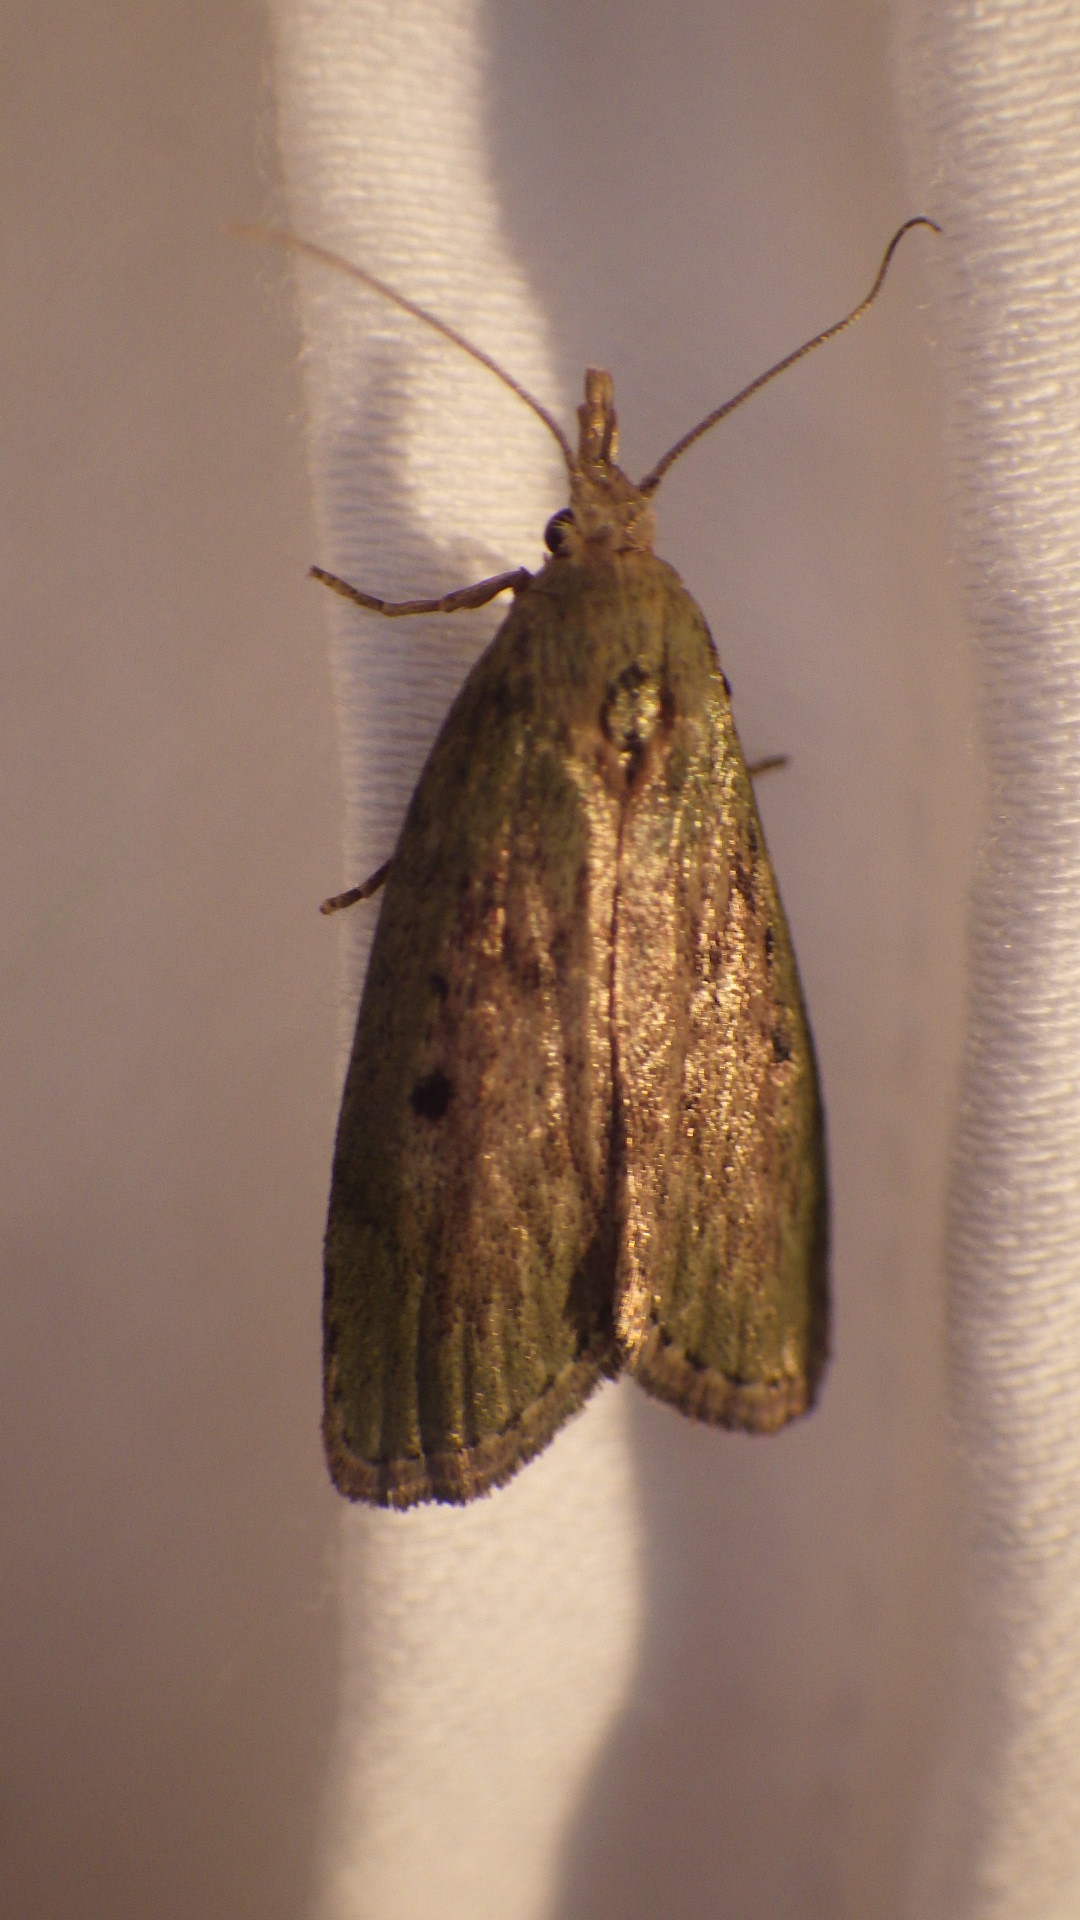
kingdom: Animalia
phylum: Arthropoda
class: Insecta
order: Lepidoptera
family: Pyralidae
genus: Aphomia
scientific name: Aphomia sociella
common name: Bee moth
